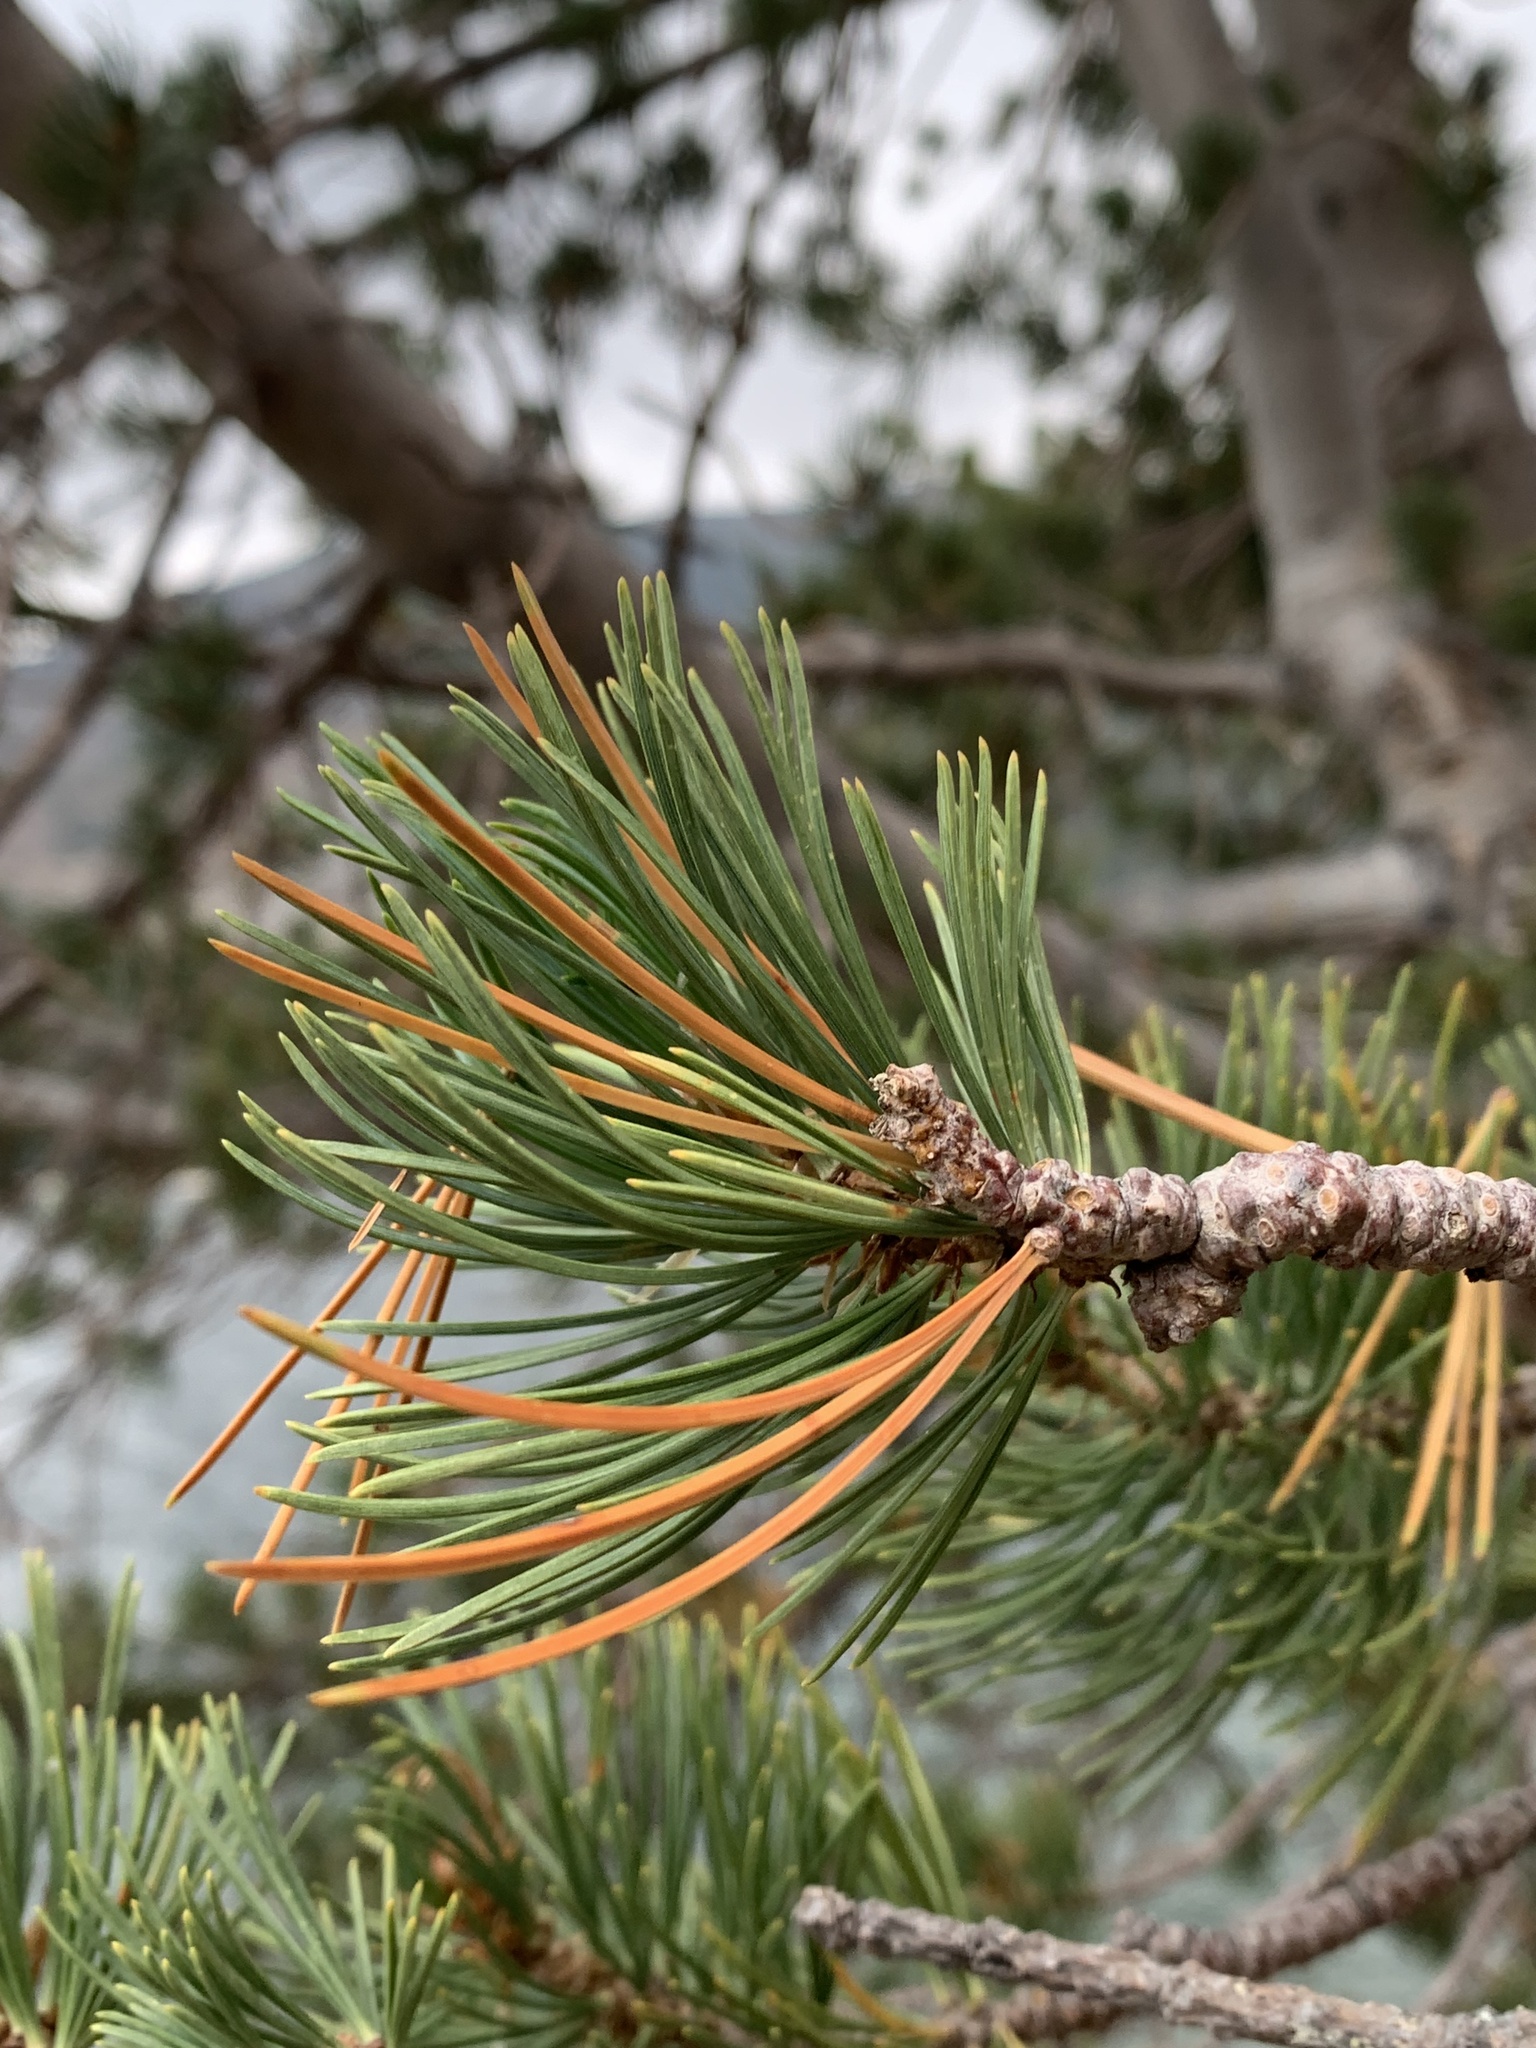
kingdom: Plantae
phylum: Tracheophyta
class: Pinopsida
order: Pinales
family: Pinaceae
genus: Pinus
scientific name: Pinus albicaulis
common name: Whitebark pine
